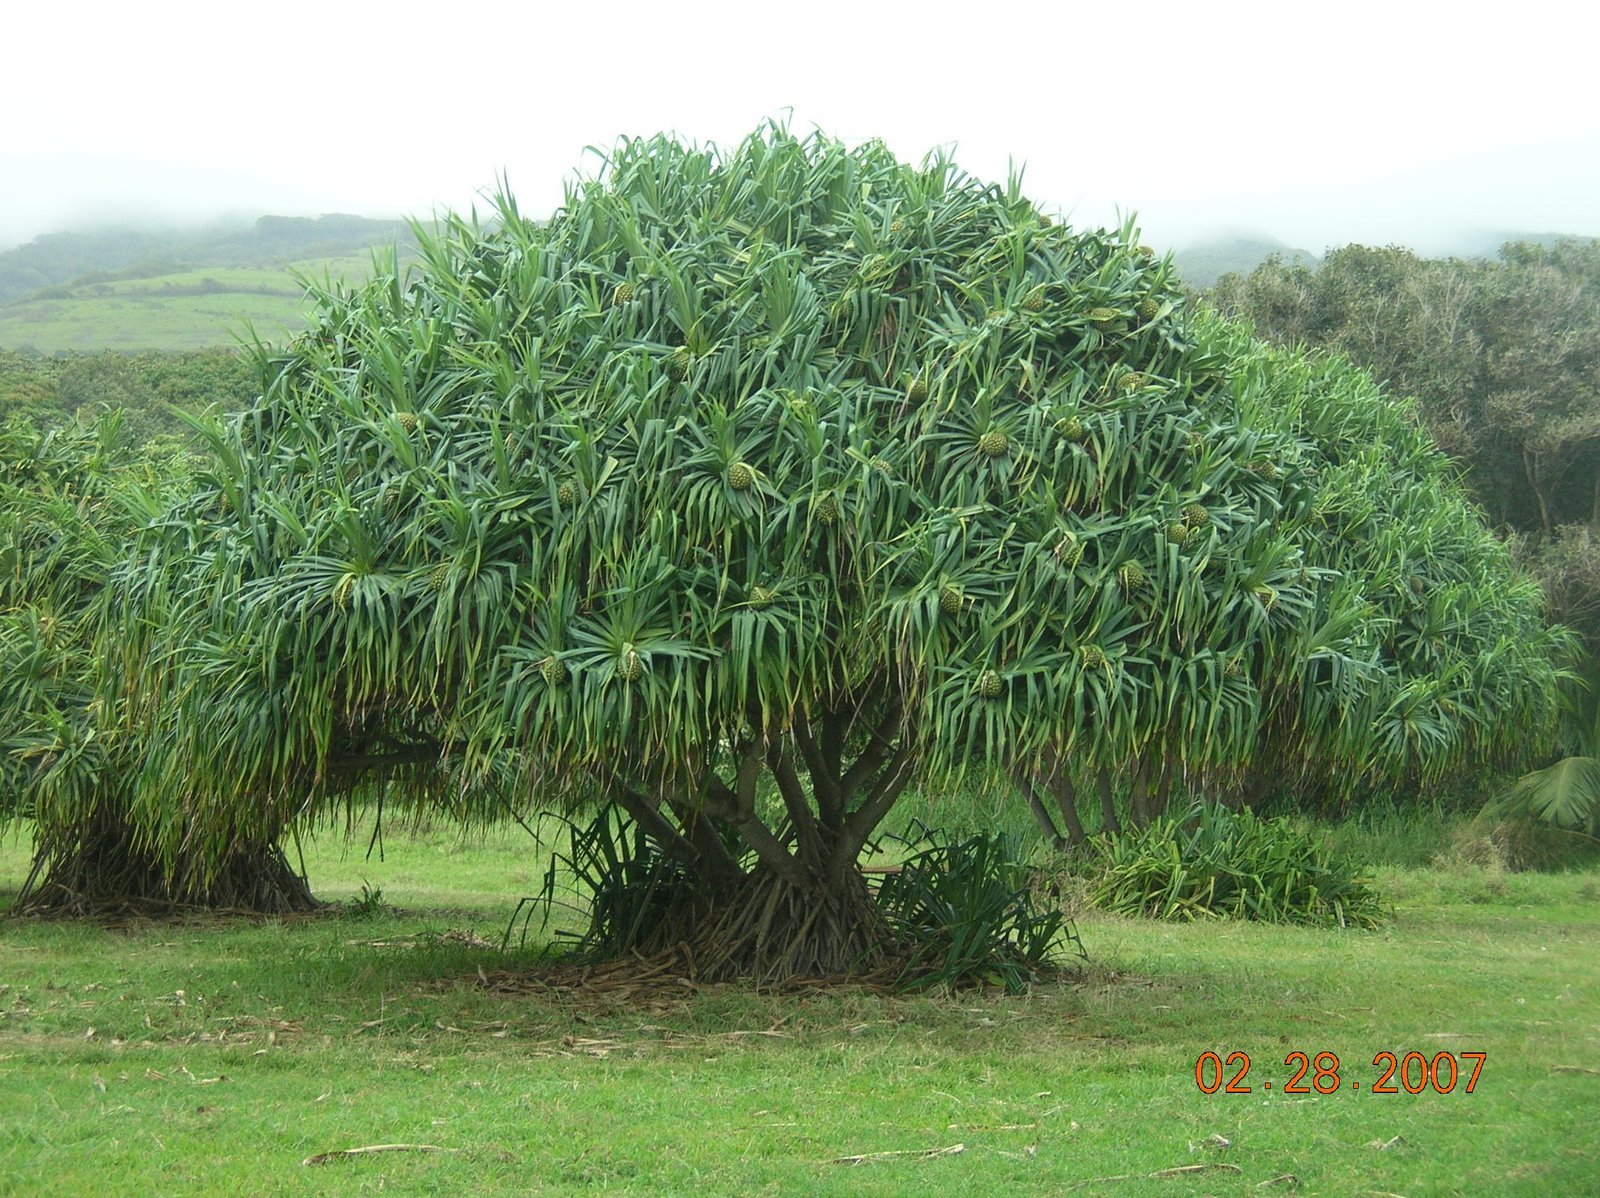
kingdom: Plantae
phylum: Tracheophyta
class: Liliopsida
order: Pandanales
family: Pandanaceae
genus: Pandanus
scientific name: Pandanus tectorius
